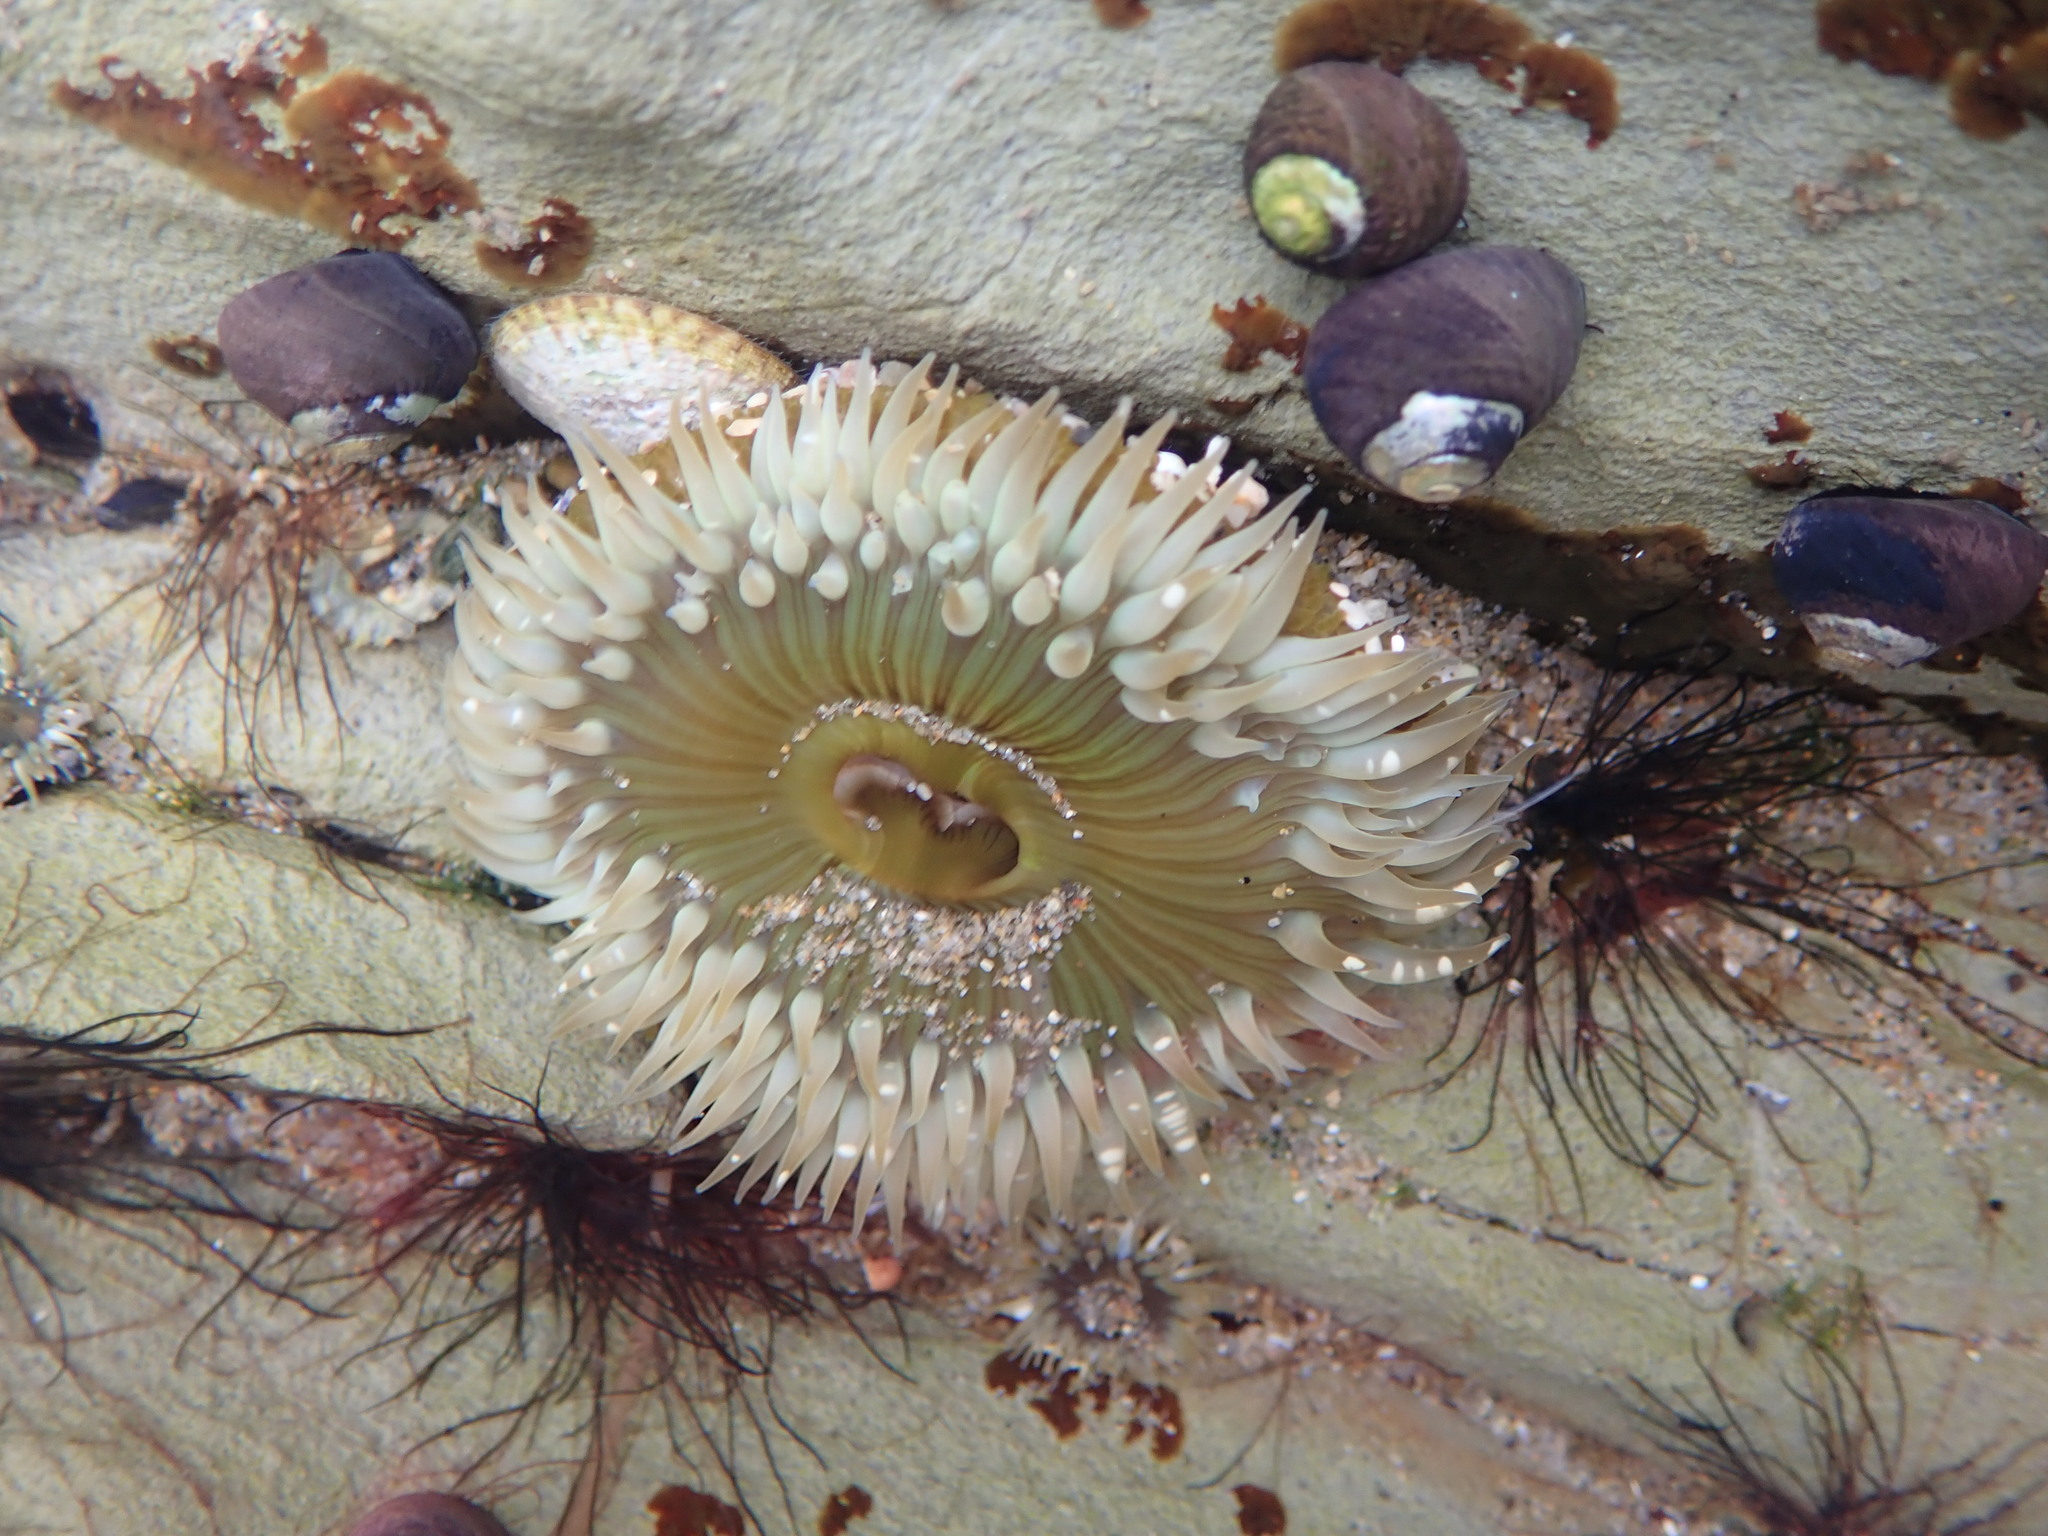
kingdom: Animalia
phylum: Cnidaria
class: Anthozoa
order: Actiniaria
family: Actiniidae
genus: Anthopleura
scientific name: Anthopleura sola
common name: Sun anemone
